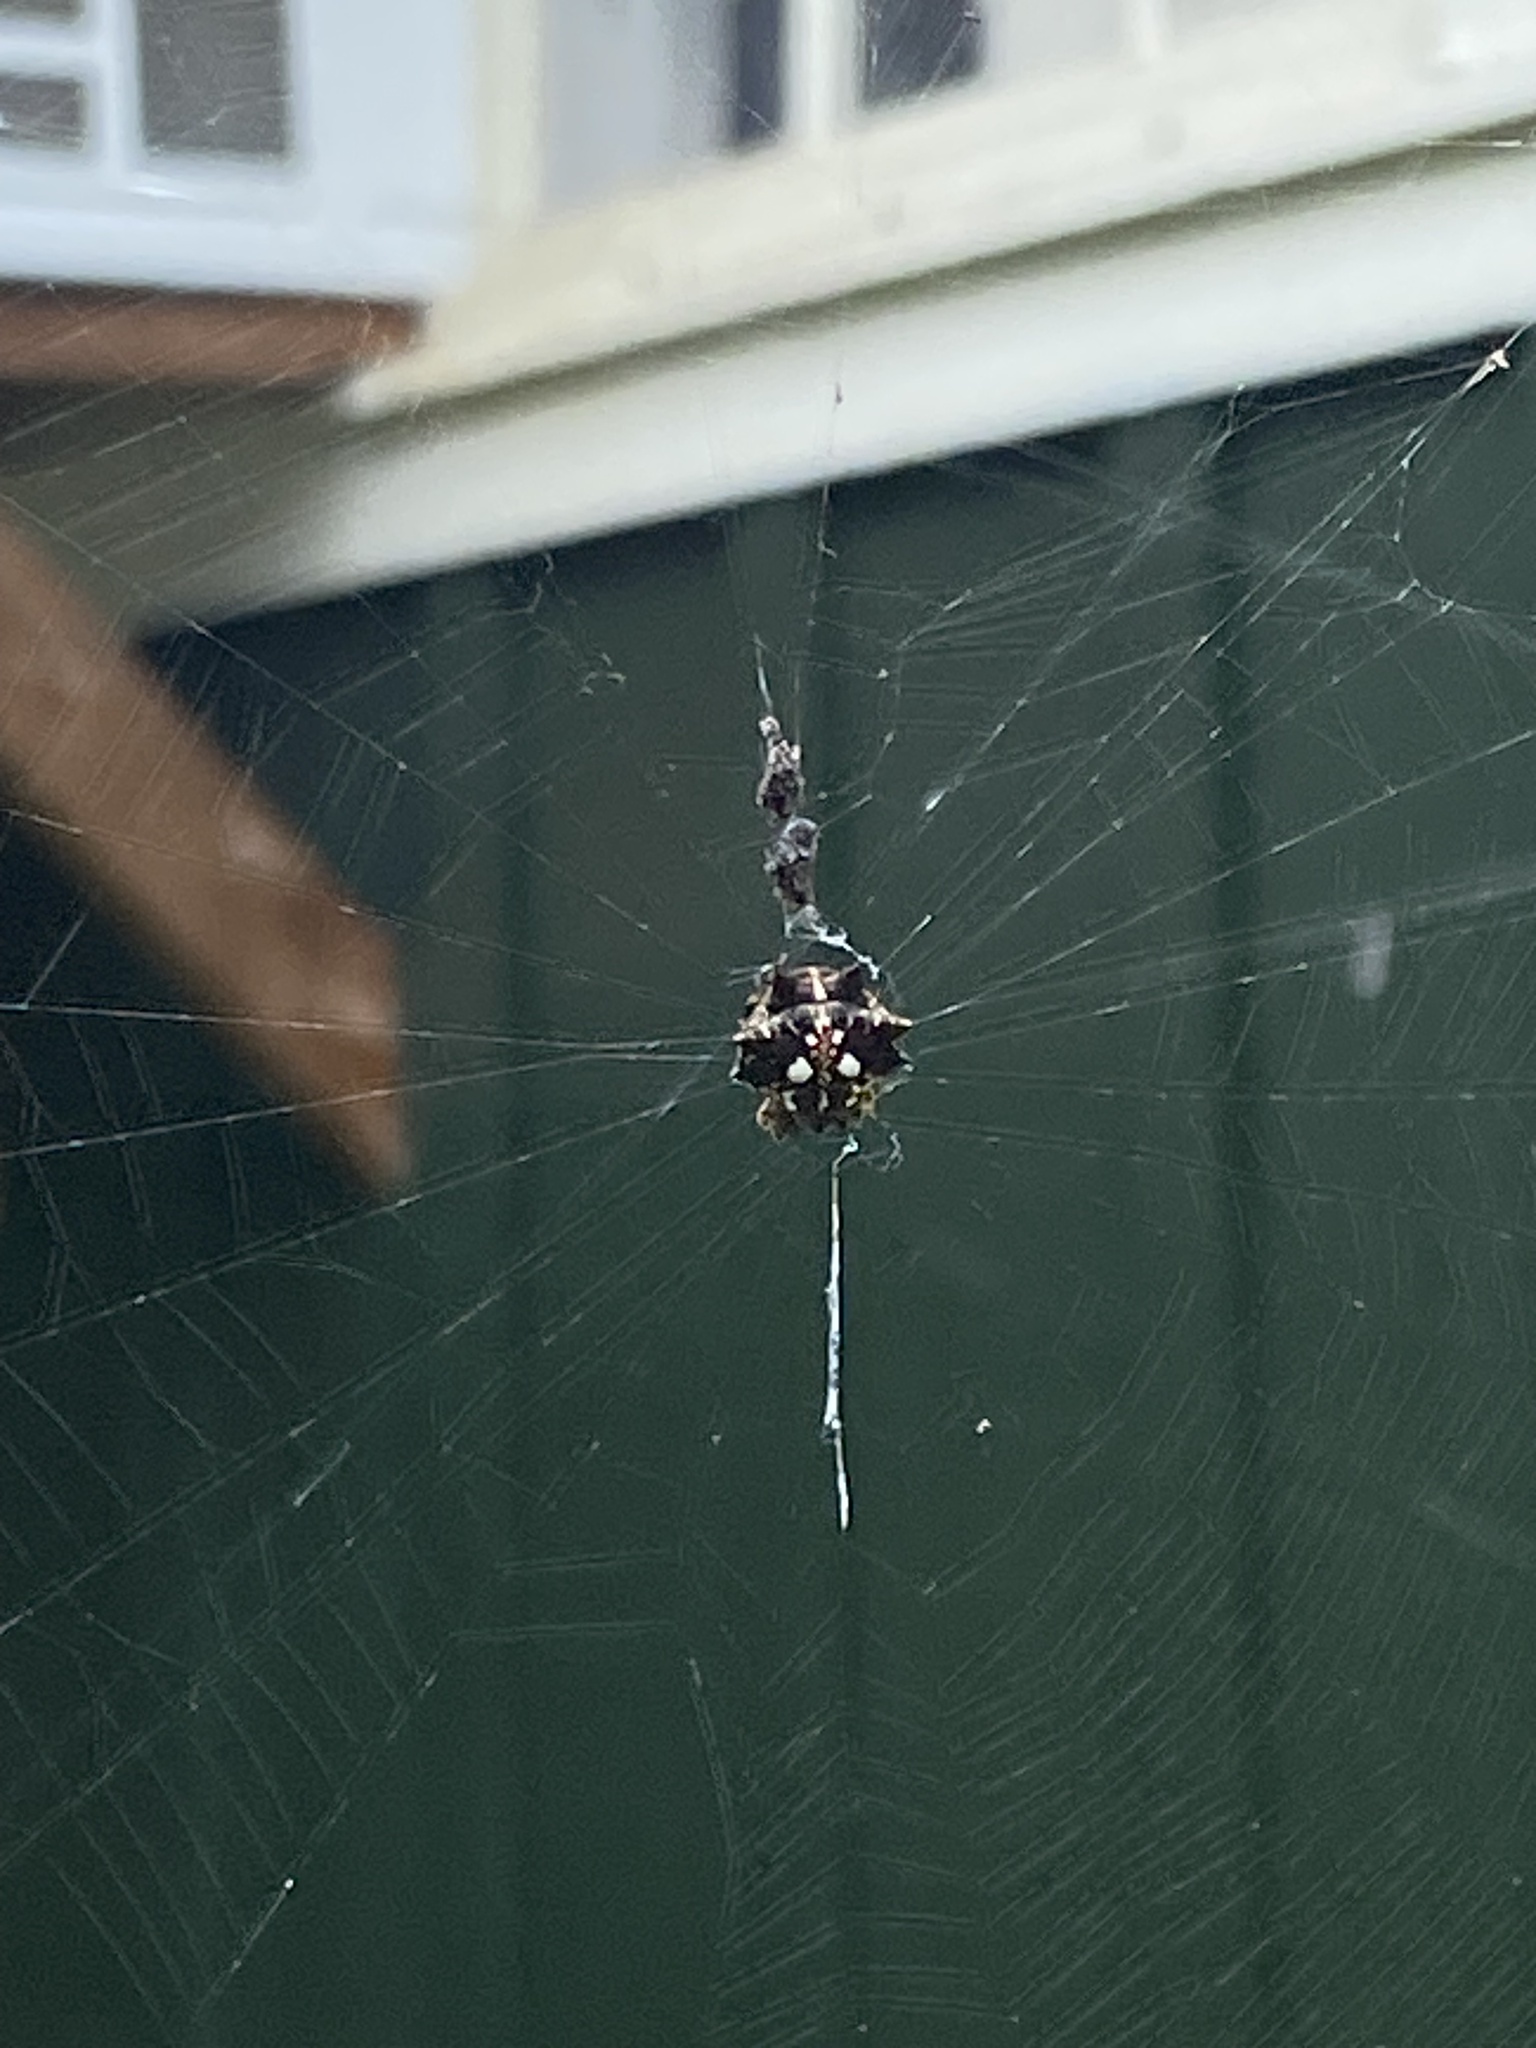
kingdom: Animalia
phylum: Arthropoda
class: Arachnida
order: Araneae
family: Araneidae
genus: Thelacantha
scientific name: Thelacantha brevispina
